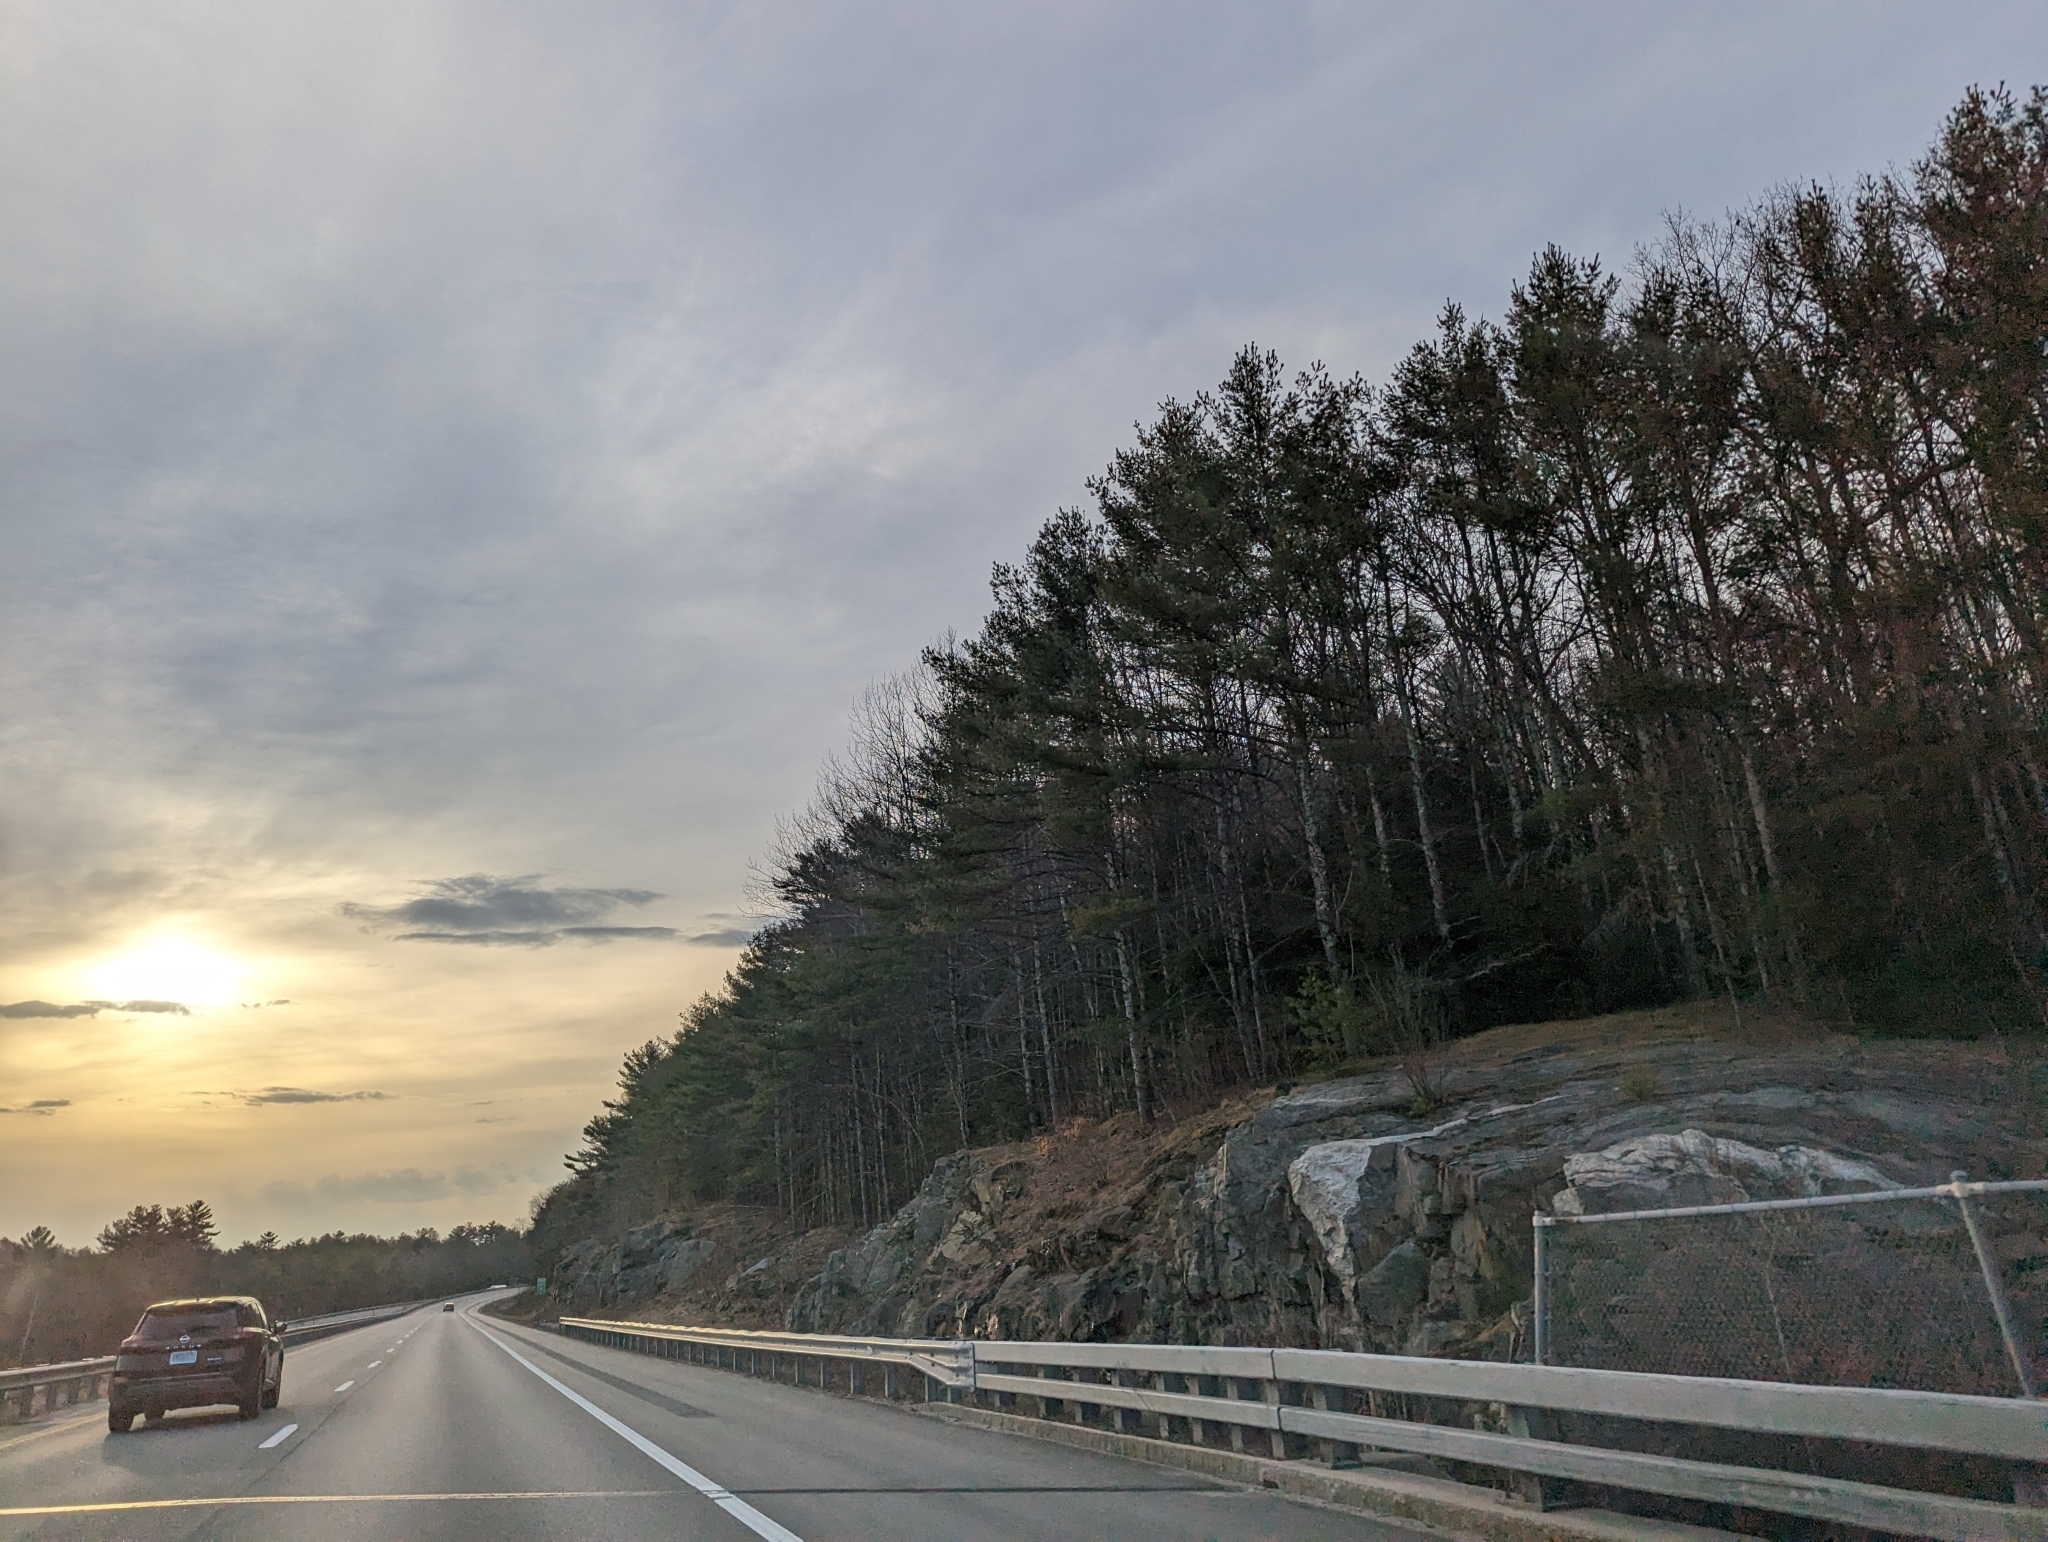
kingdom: Plantae
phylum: Tracheophyta
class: Pinopsida
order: Pinales
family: Pinaceae
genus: Pinus
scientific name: Pinus strobus
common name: Weymouth pine
